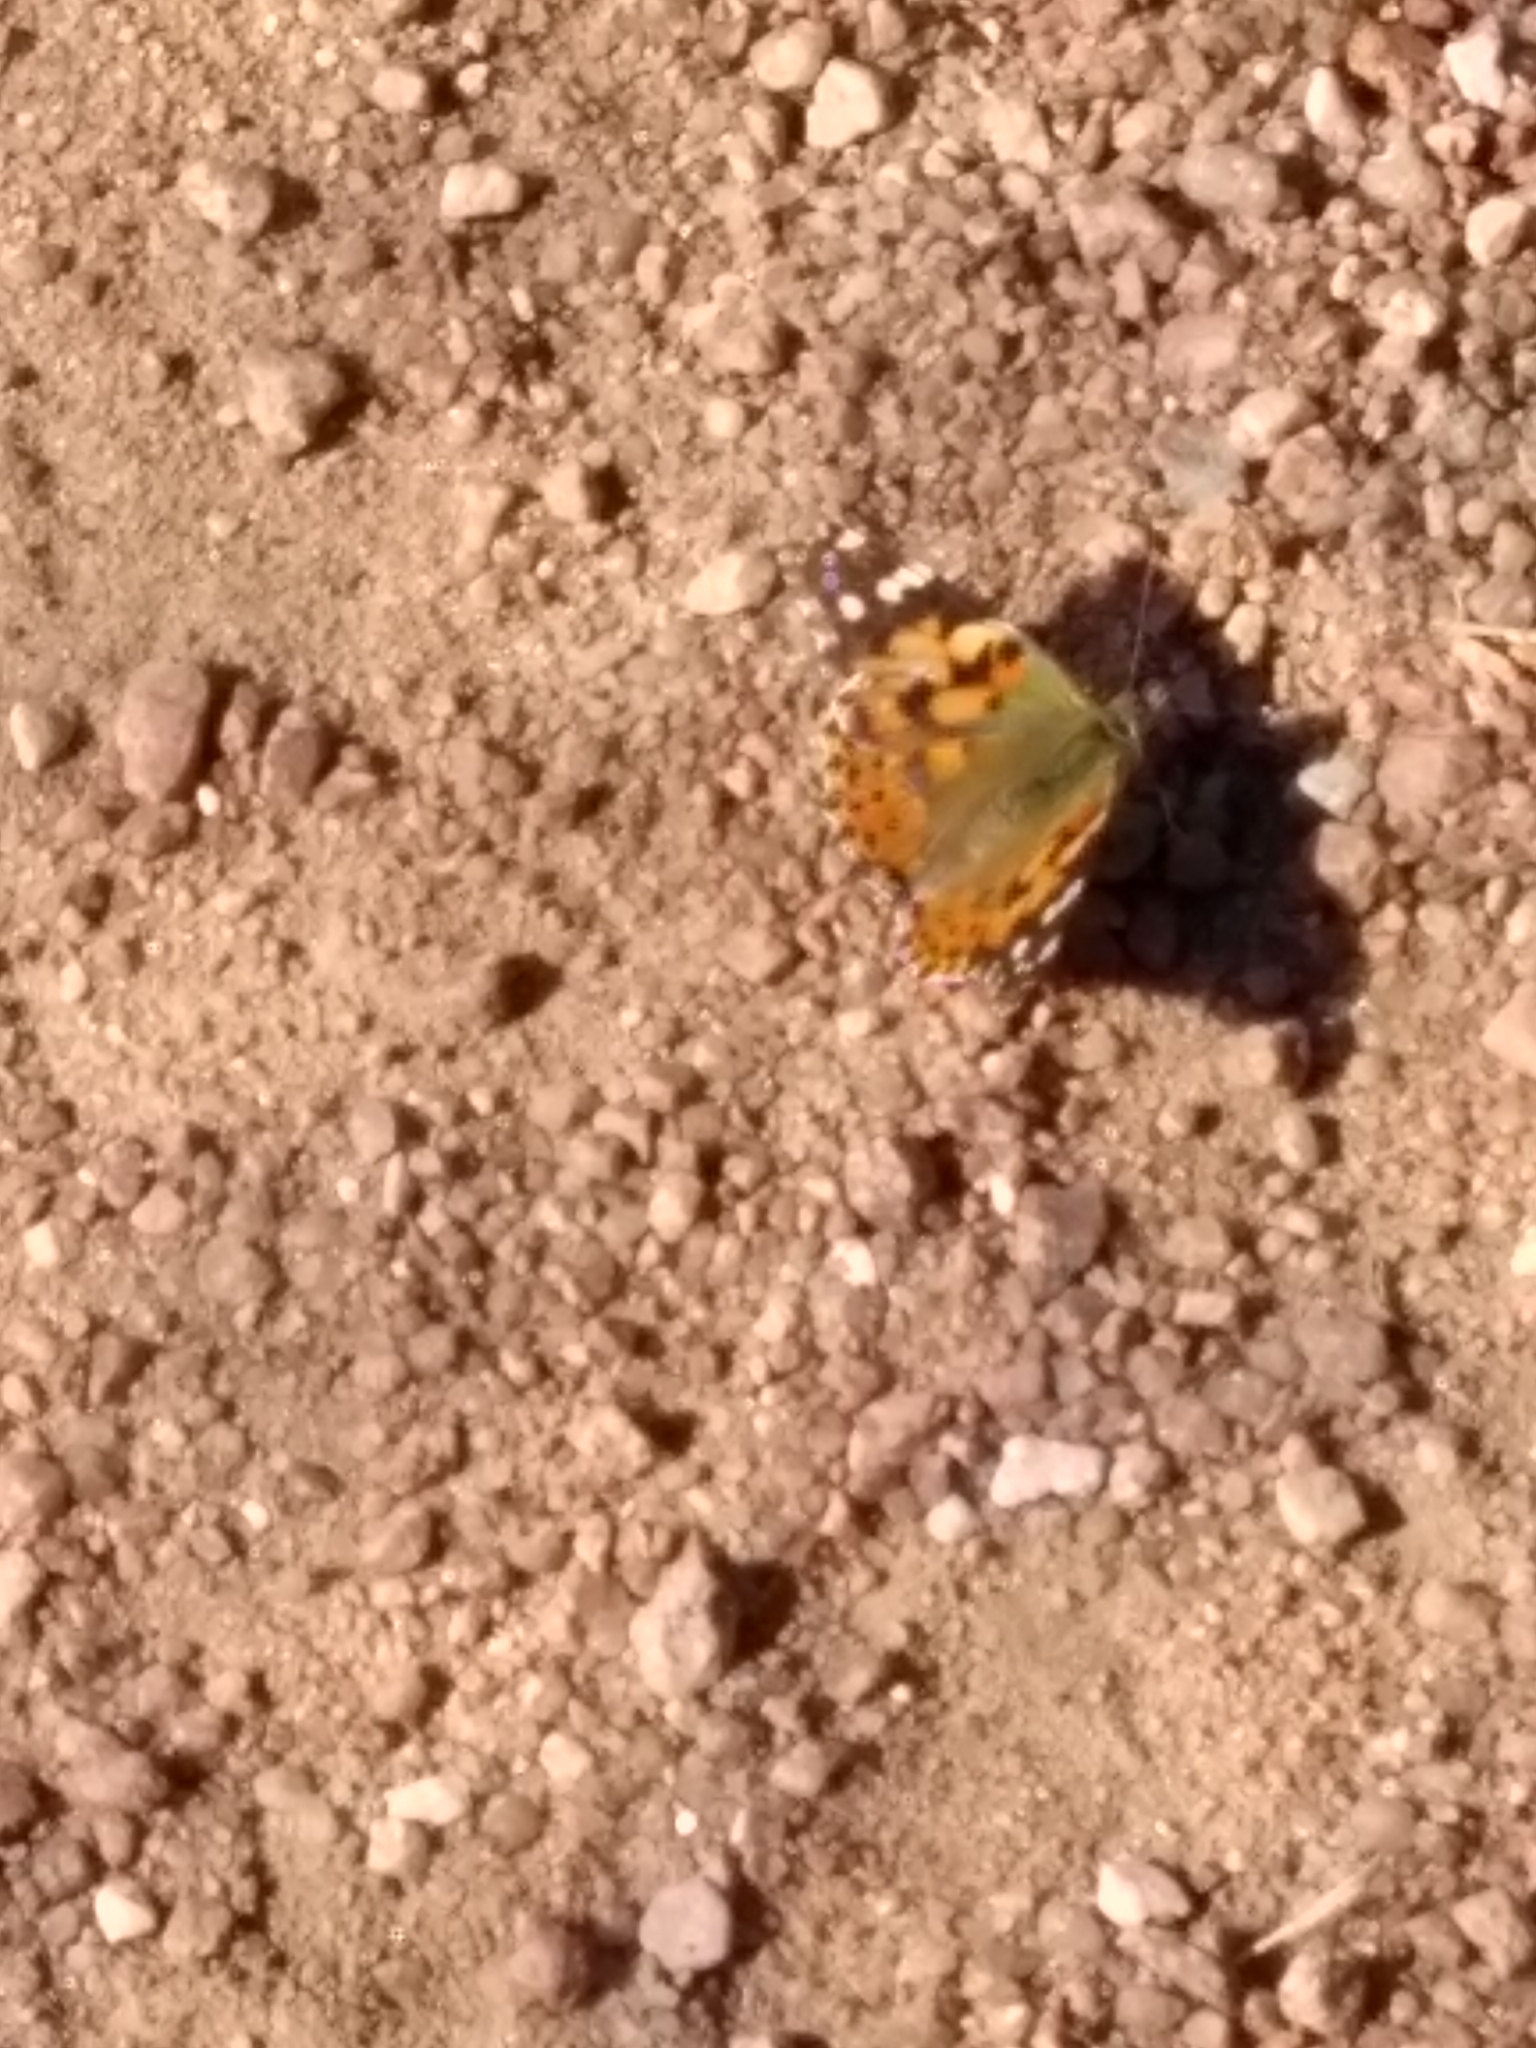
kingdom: Animalia
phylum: Arthropoda
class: Insecta
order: Lepidoptera
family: Nymphalidae
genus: Vanessa
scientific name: Vanessa cardui
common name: Painted lady
